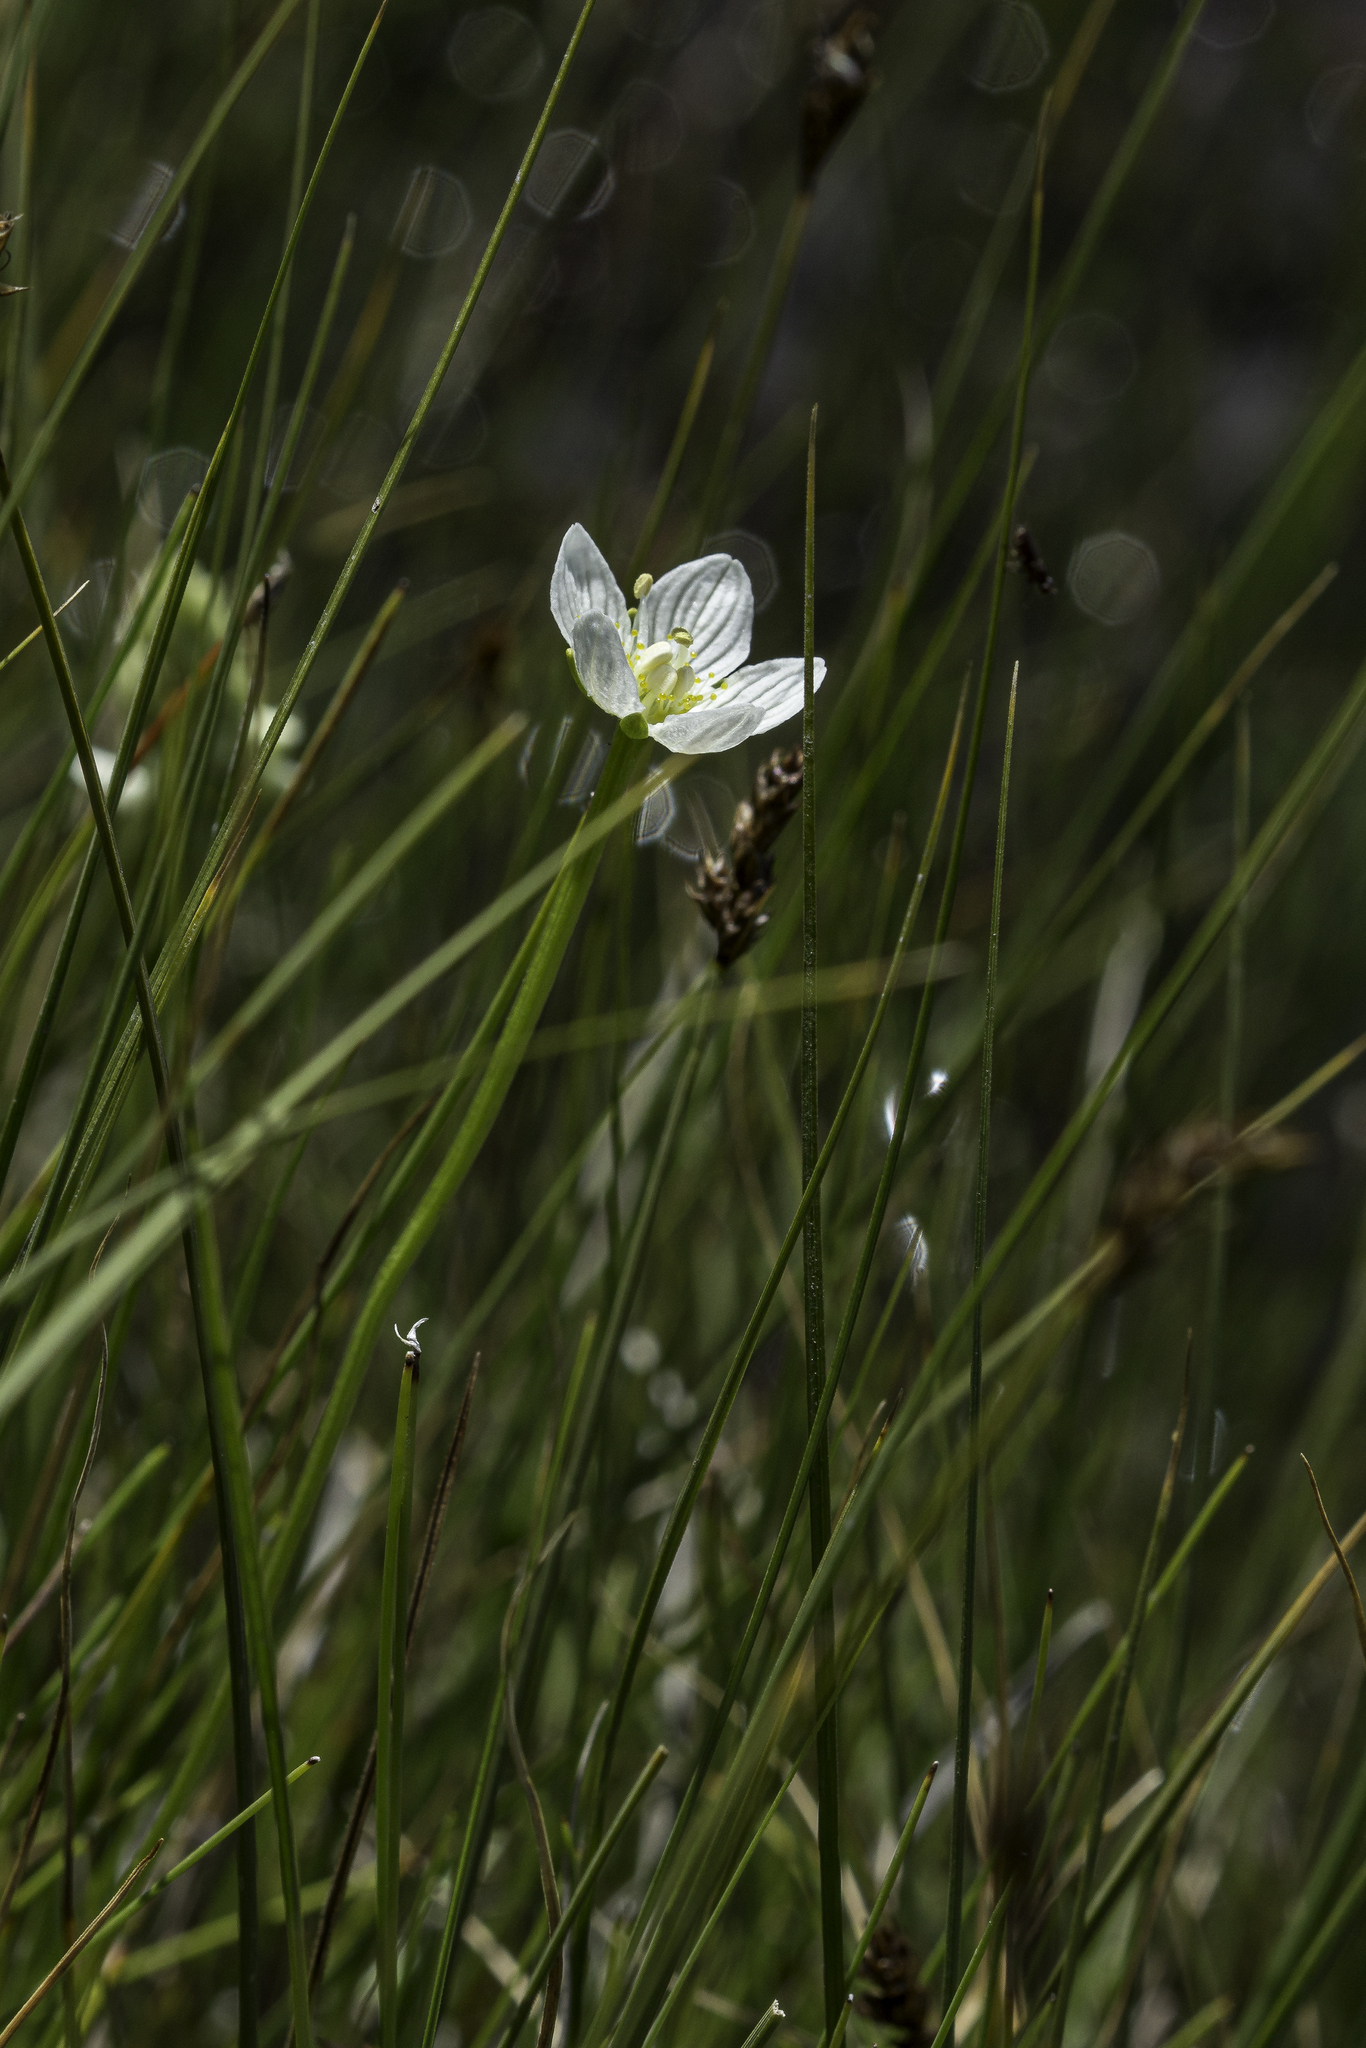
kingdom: Plantae
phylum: Tracheophyta
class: Magnoliopsida
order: Celastrales
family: Parnassiaceae
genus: Parnassia
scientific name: Parnassia palustris
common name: Grass-of-parnassus
